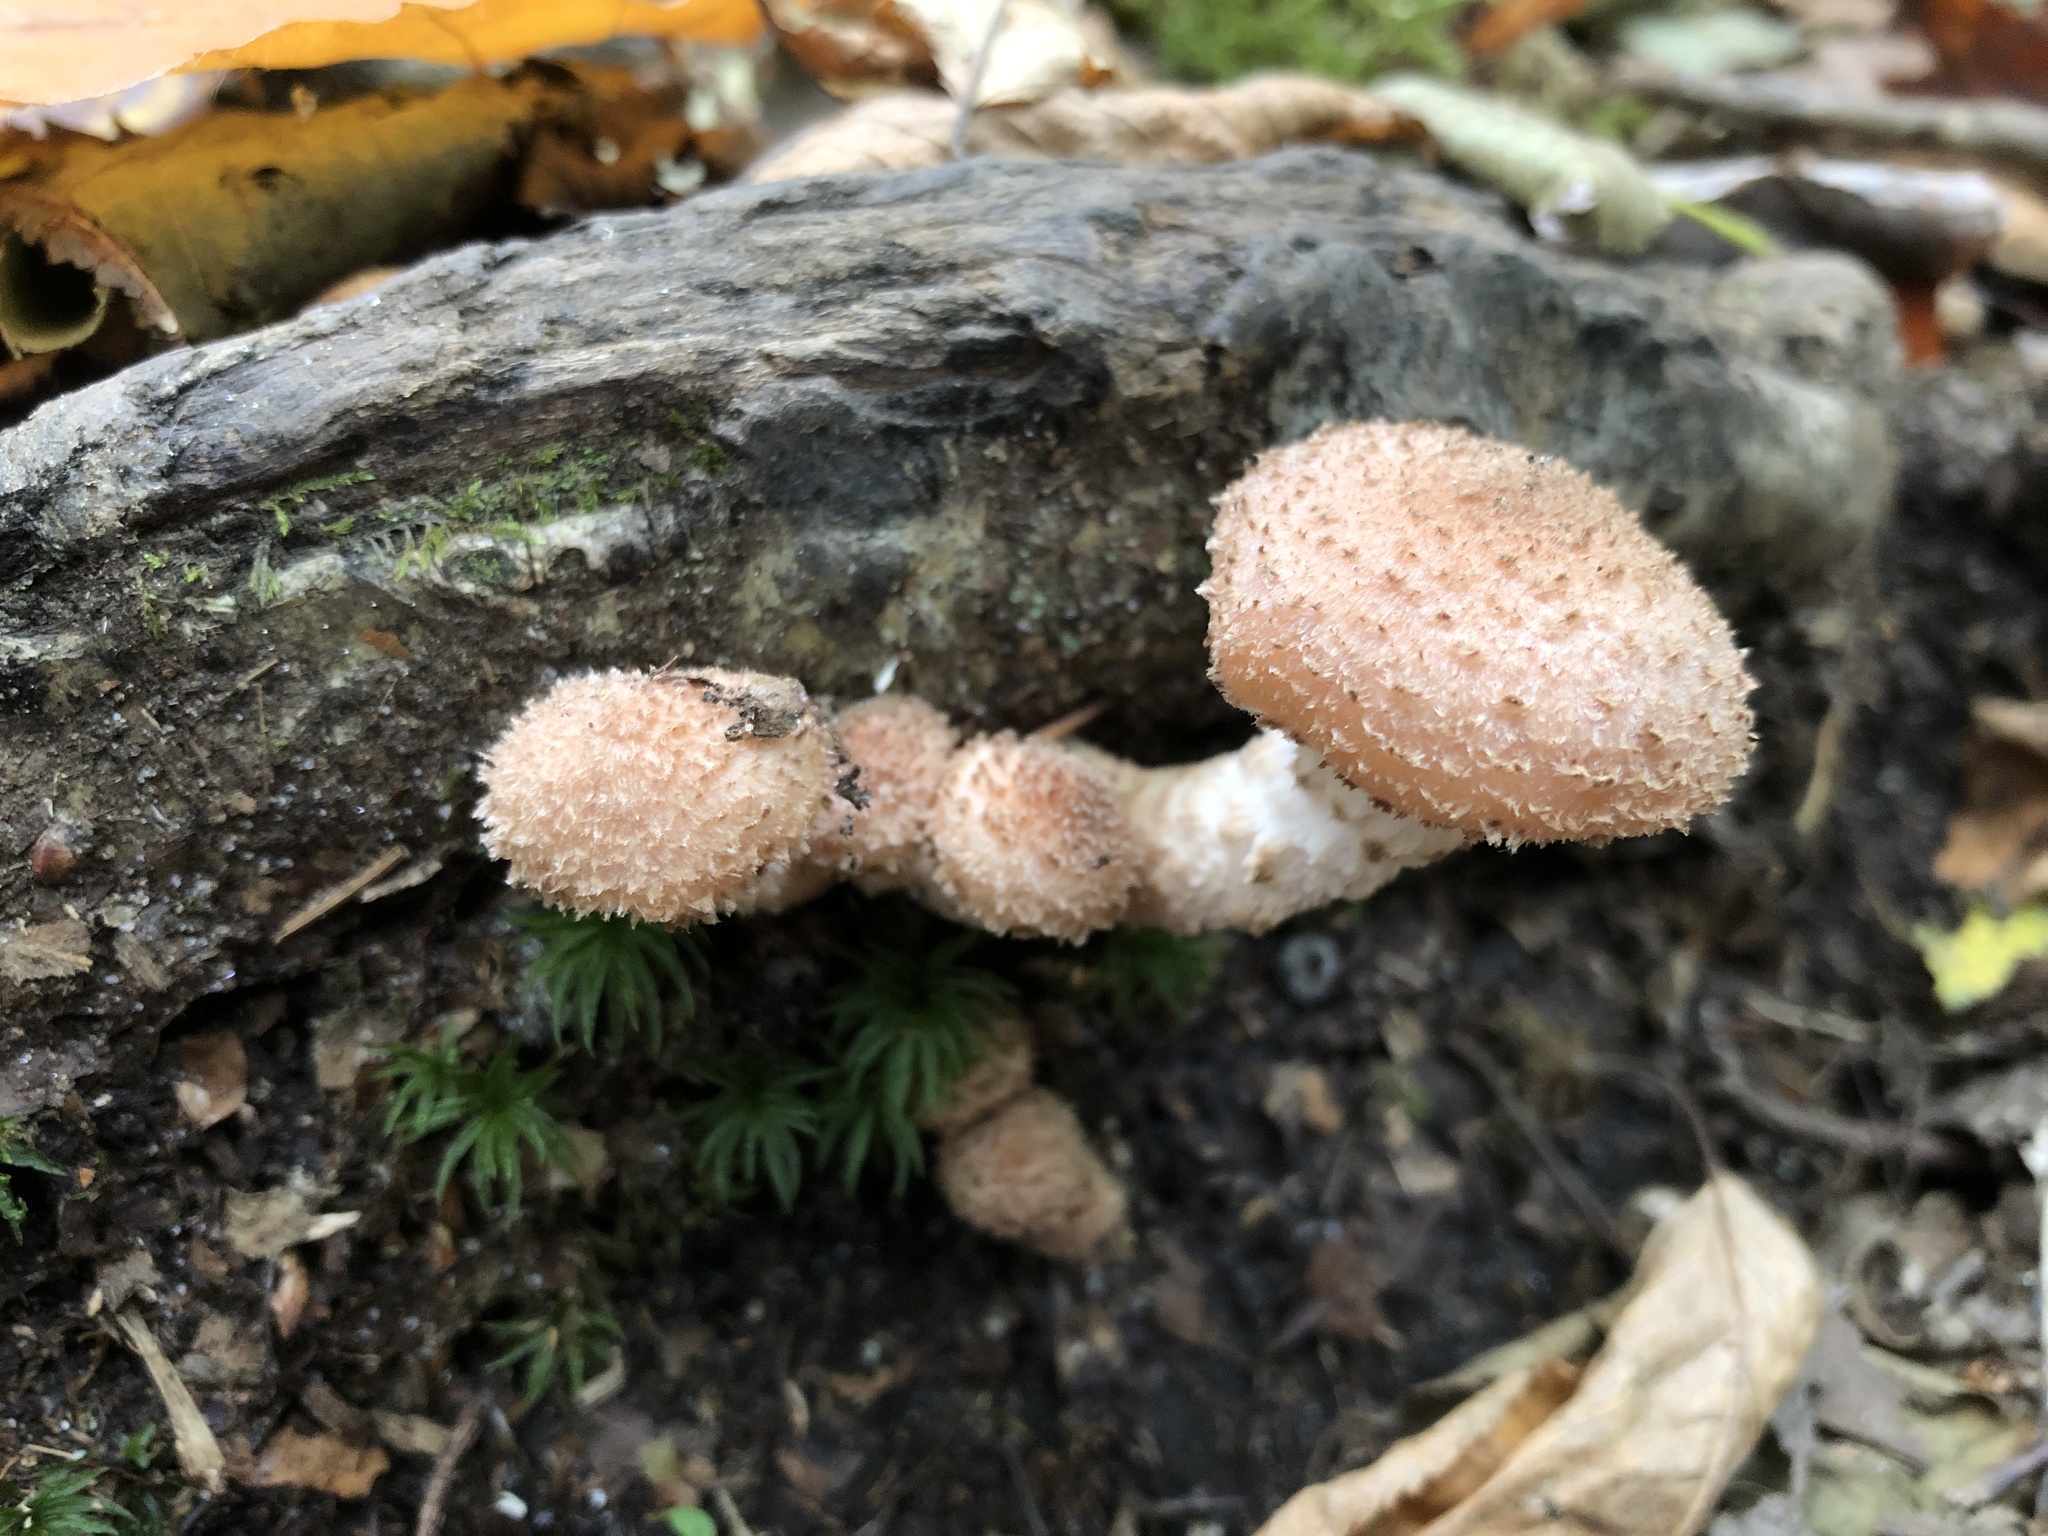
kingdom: Fungi
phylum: Basidiomycota
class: Agaricomycetes
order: Agaricales
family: Physalacriaceae
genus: Armillaria
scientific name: Armillaria gallica
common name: Bulbous honey fungus
